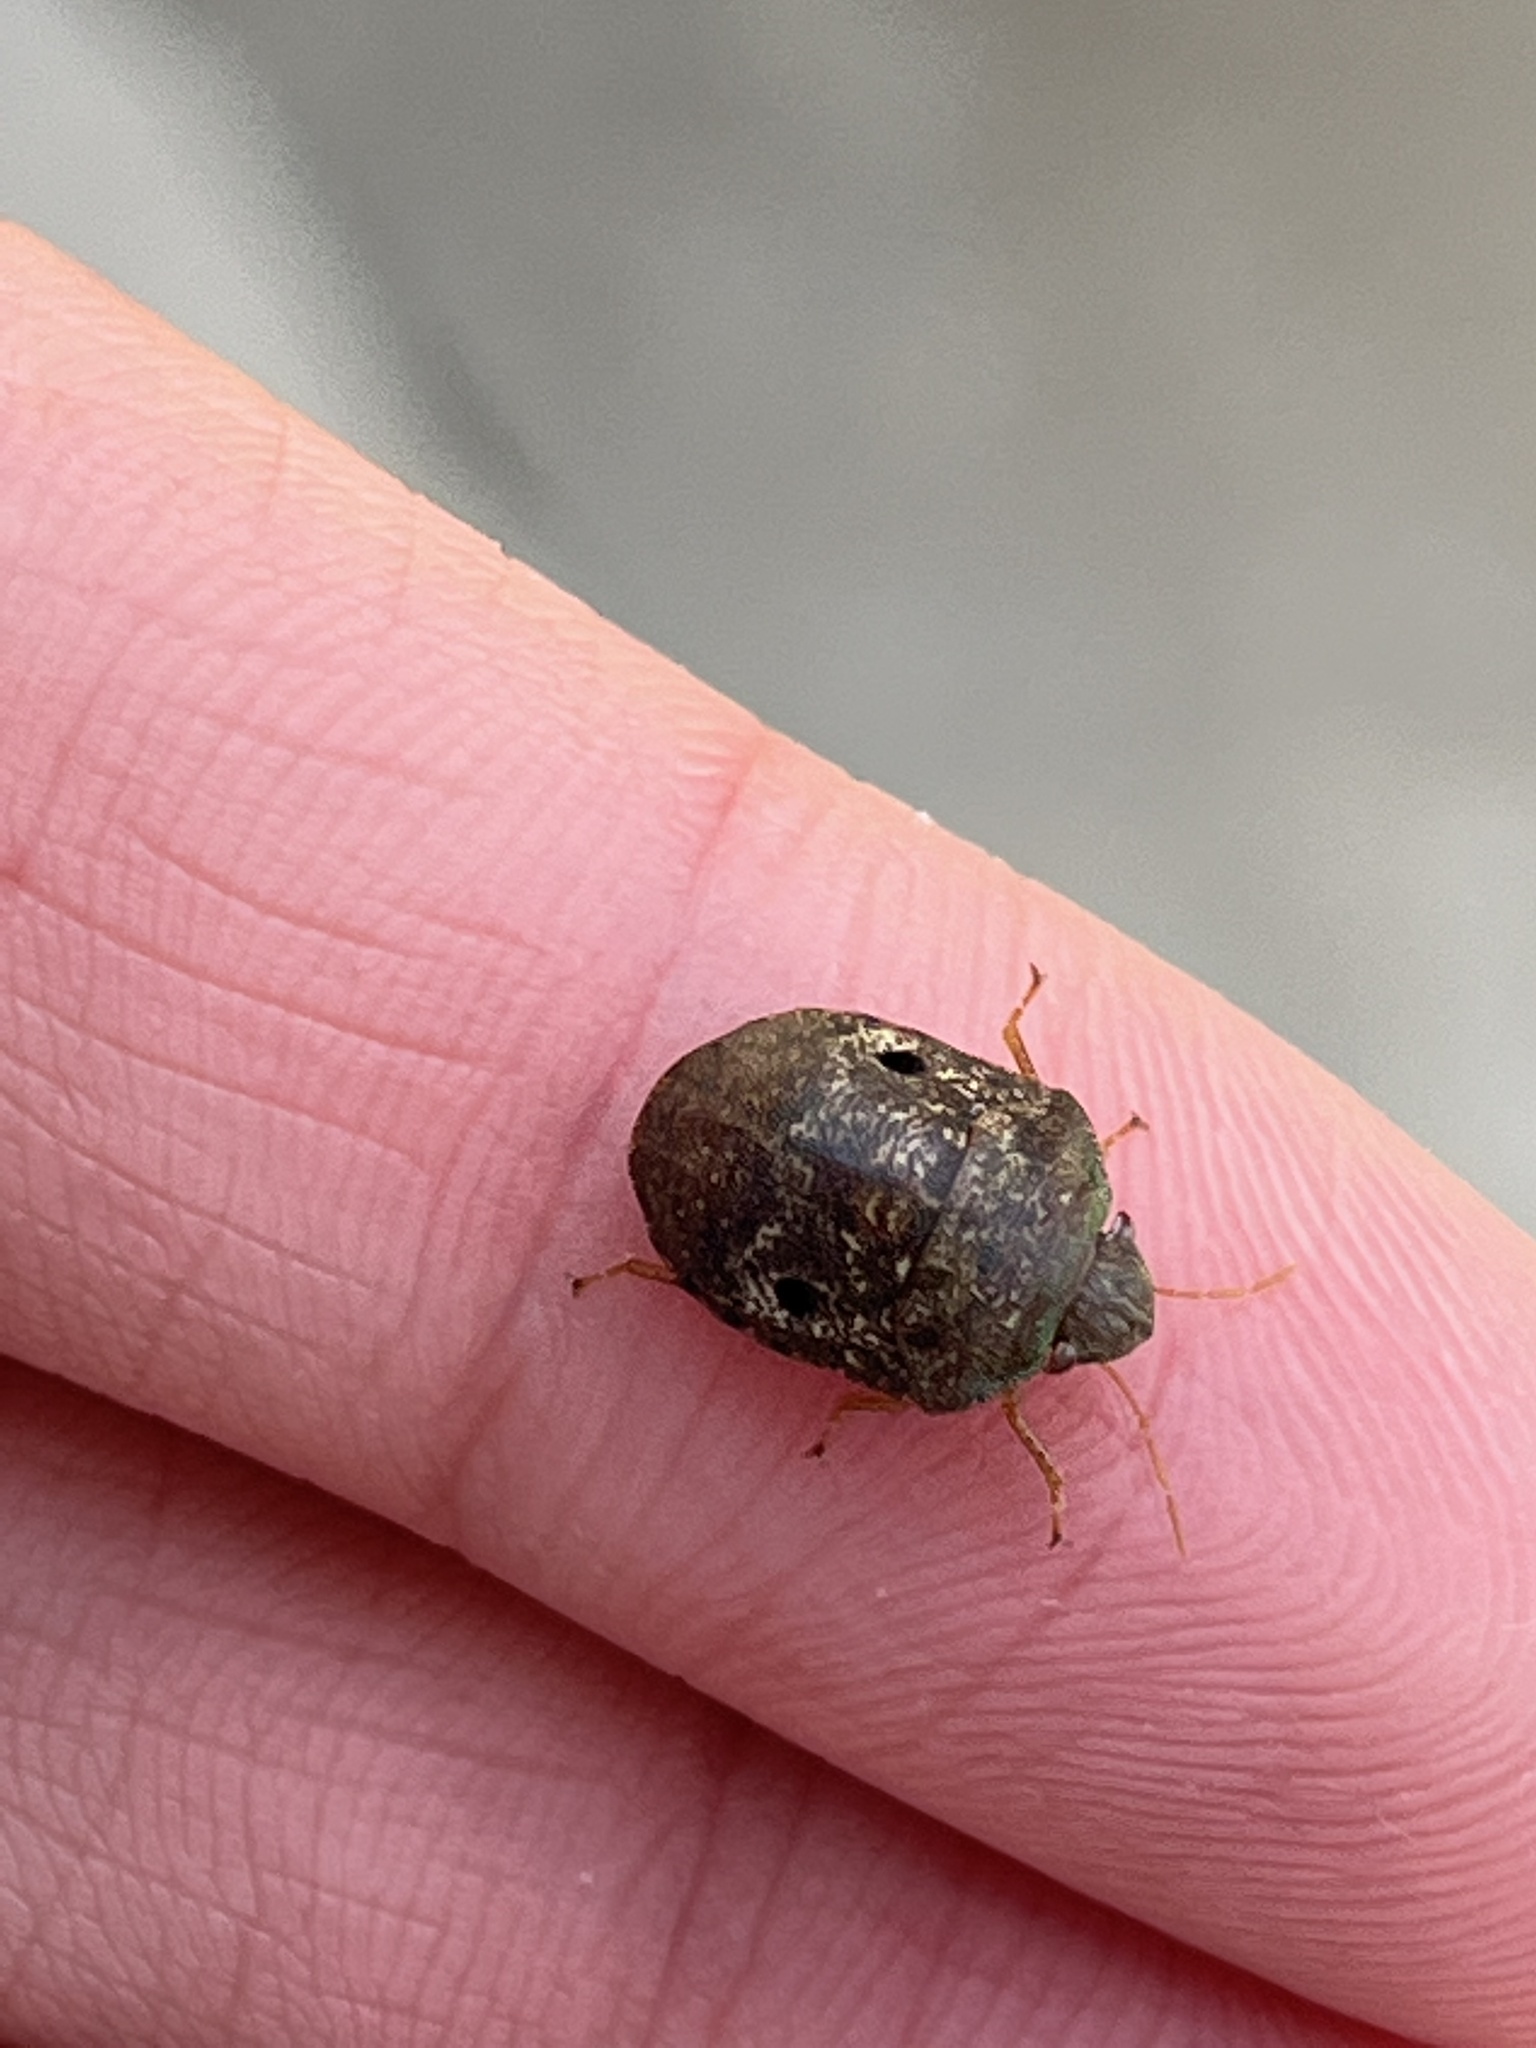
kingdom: Animalia
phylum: Arthropoda
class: Insecta
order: Hemiptera
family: Scutelleridae
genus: Diolcus
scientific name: Diolcus chrysorrhoeus
